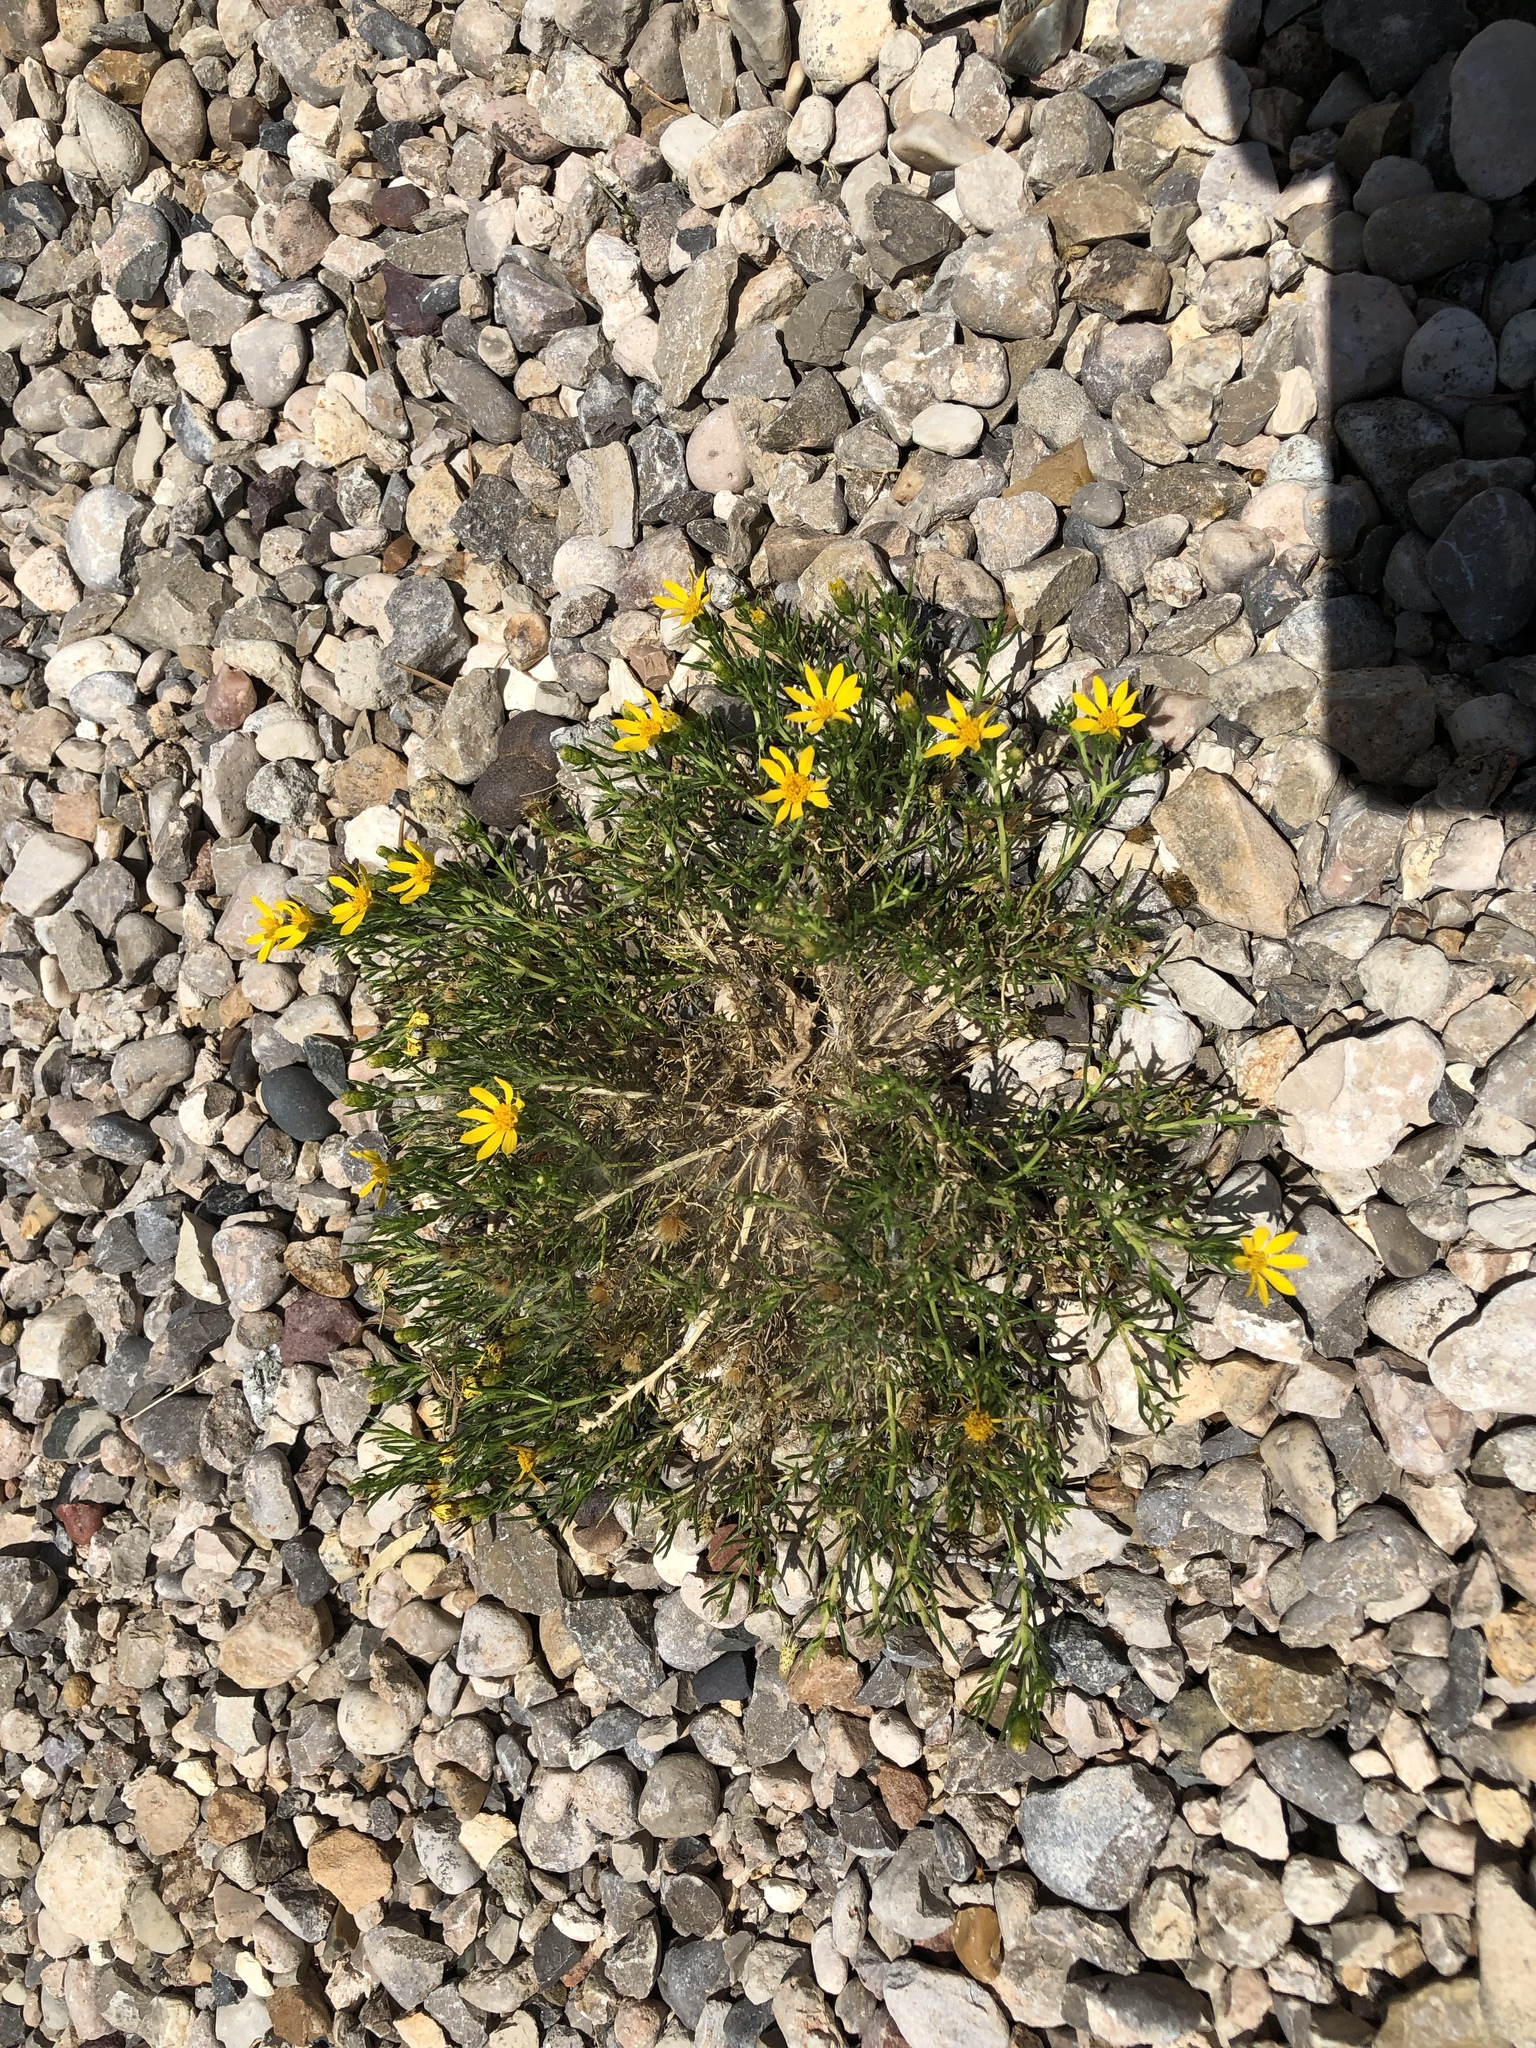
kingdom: Plantae
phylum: Tracheophyta
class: Magnoliopsida
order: Asterales
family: Asteraceae
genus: Thymophylla
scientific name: Thymophylla acerosa
